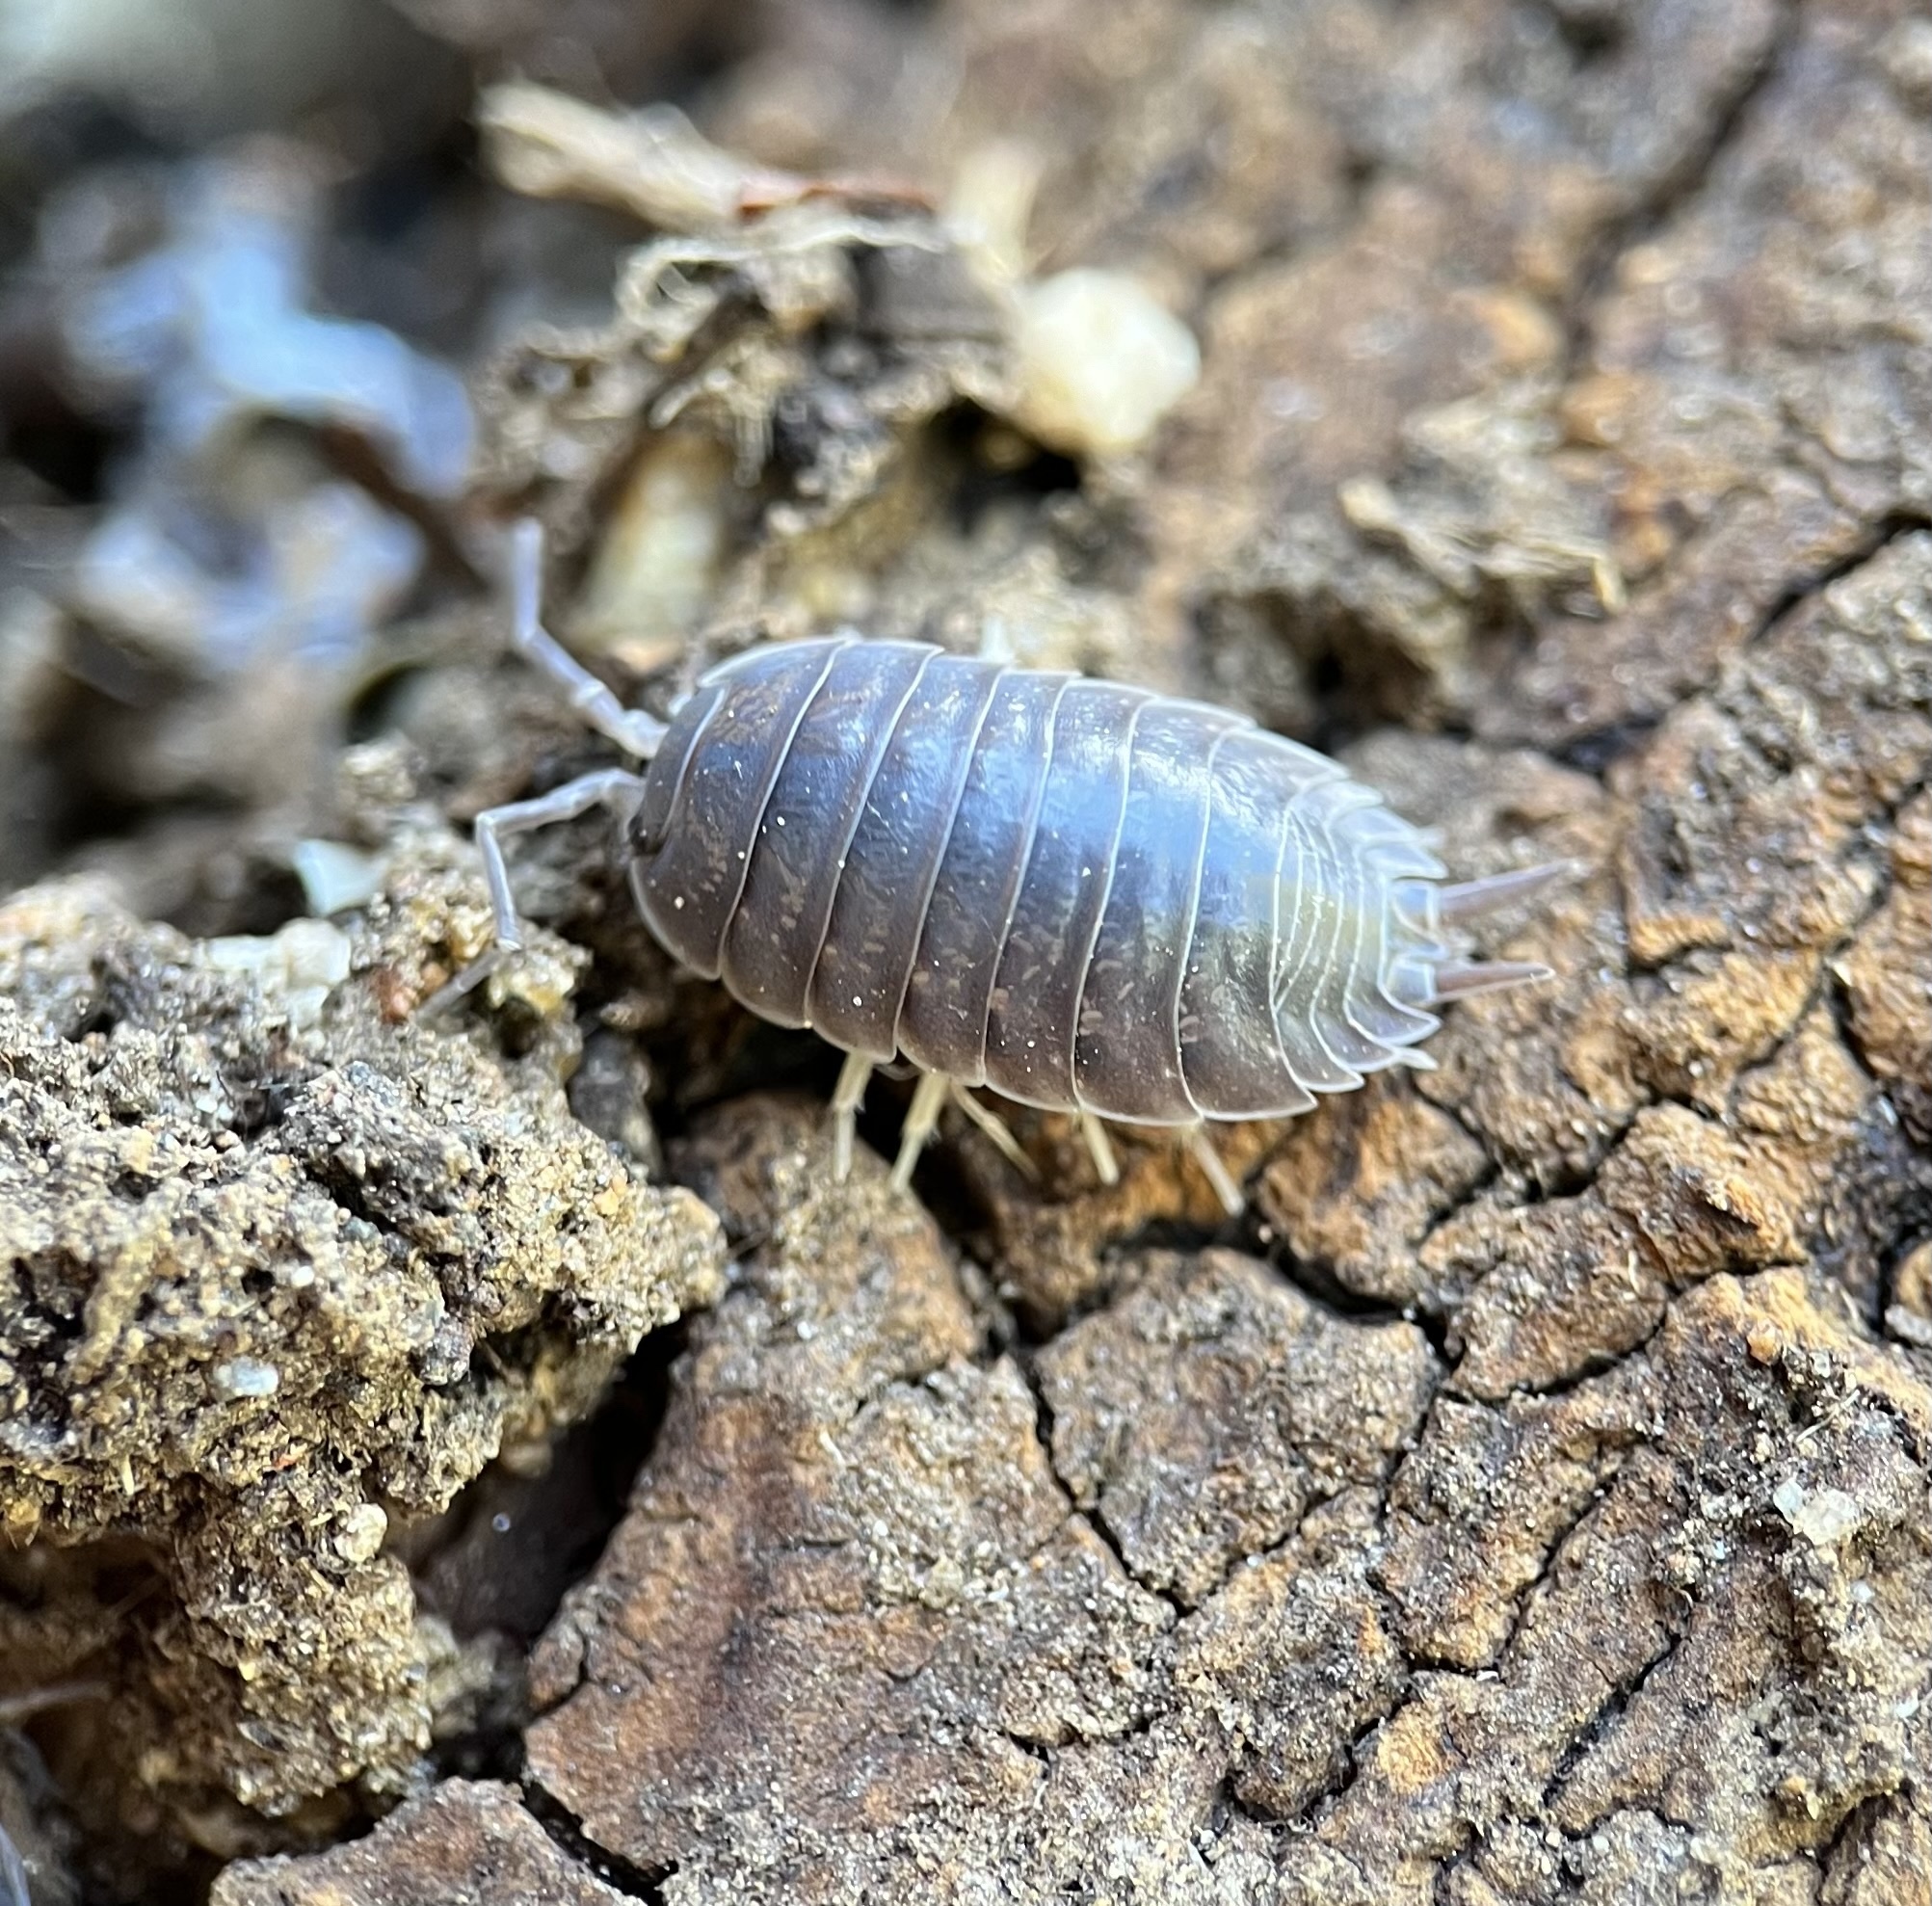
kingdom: Animalia
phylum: Arthropoda
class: Malacostraca
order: Isopoda
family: Porcellionidae
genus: Porcellio
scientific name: Porcellio laevis
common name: Swift woodlouse
